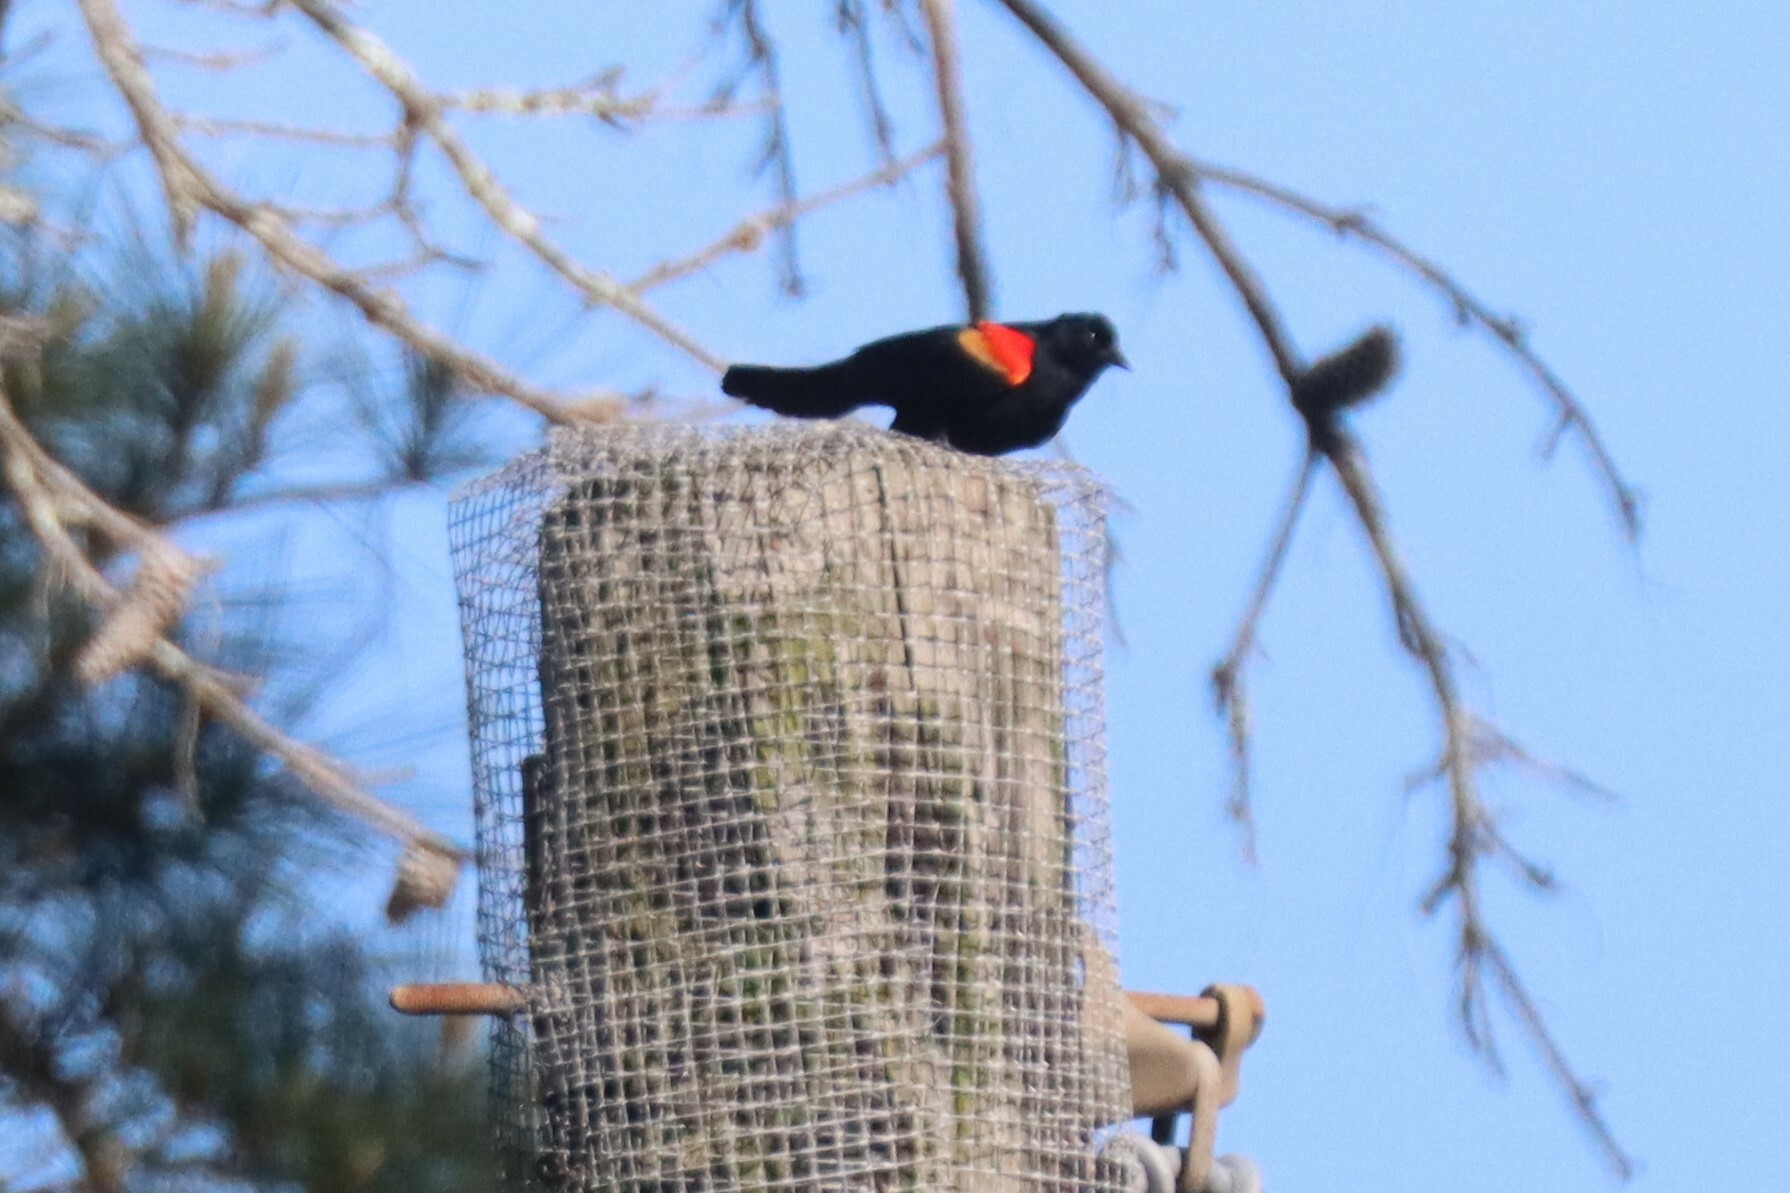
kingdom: Animalia
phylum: Chordata
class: Aves
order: Passeriformes
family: Icteridae
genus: Agelaius
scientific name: Agelaius phoeniceus
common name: Red-winged blackbird
